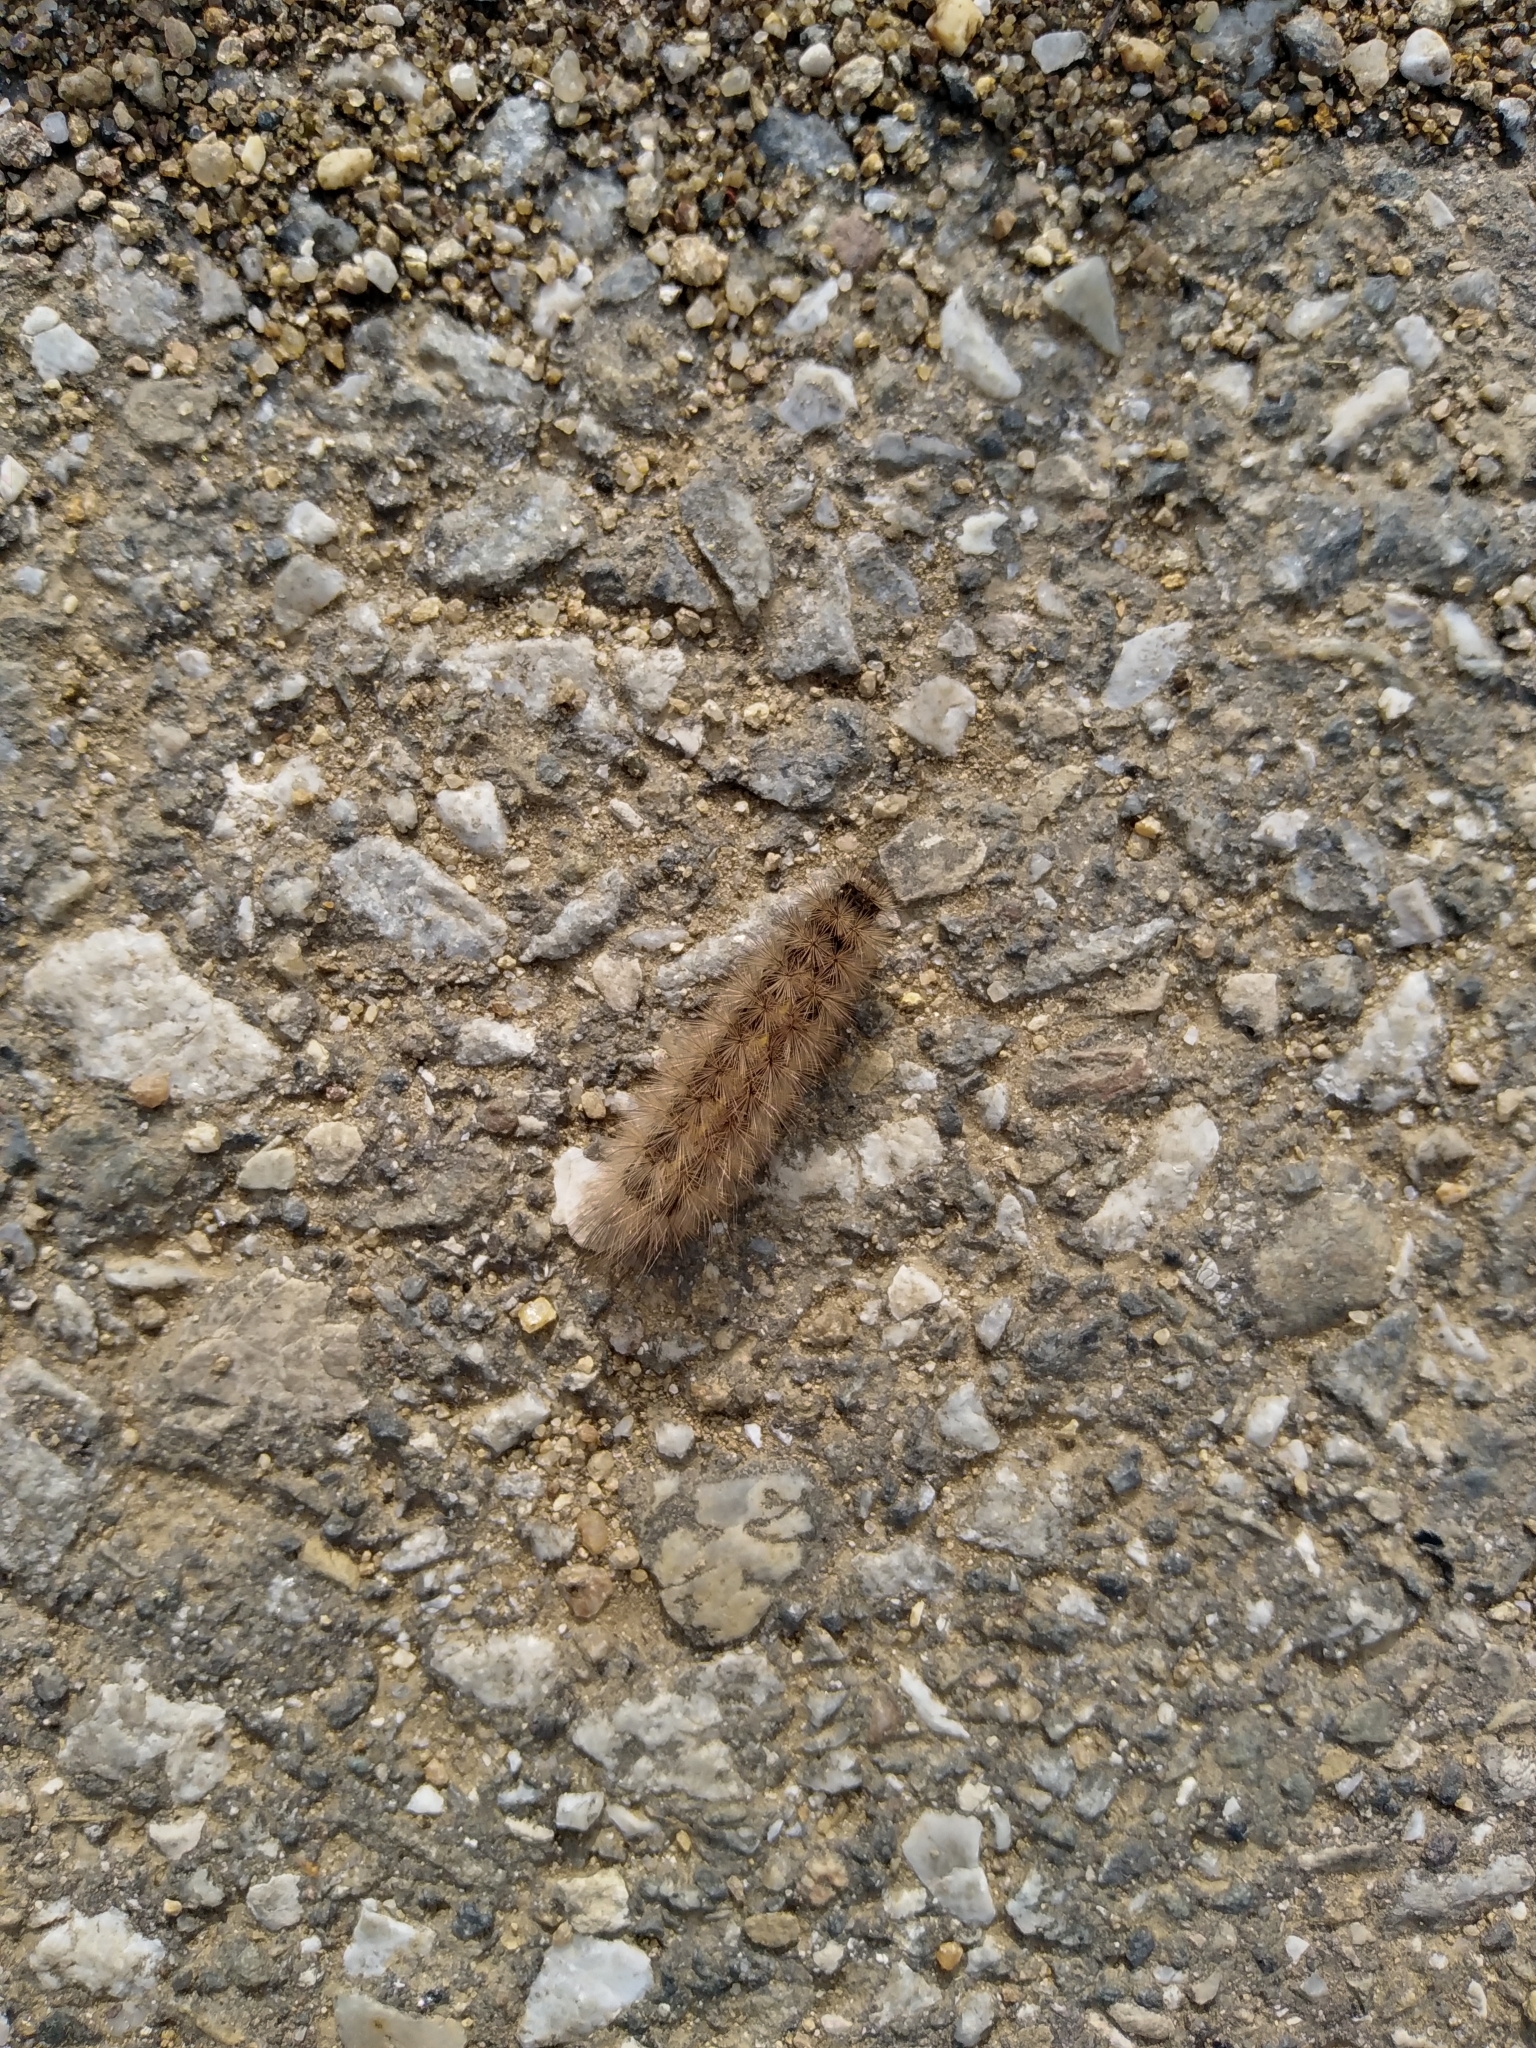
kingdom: Animalia
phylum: Arthropoda
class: Insecta
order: Lepidoptera
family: Erebidae
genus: Phragmatobia
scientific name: Phragmatobia fuliginosa
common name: Ruby tiger
